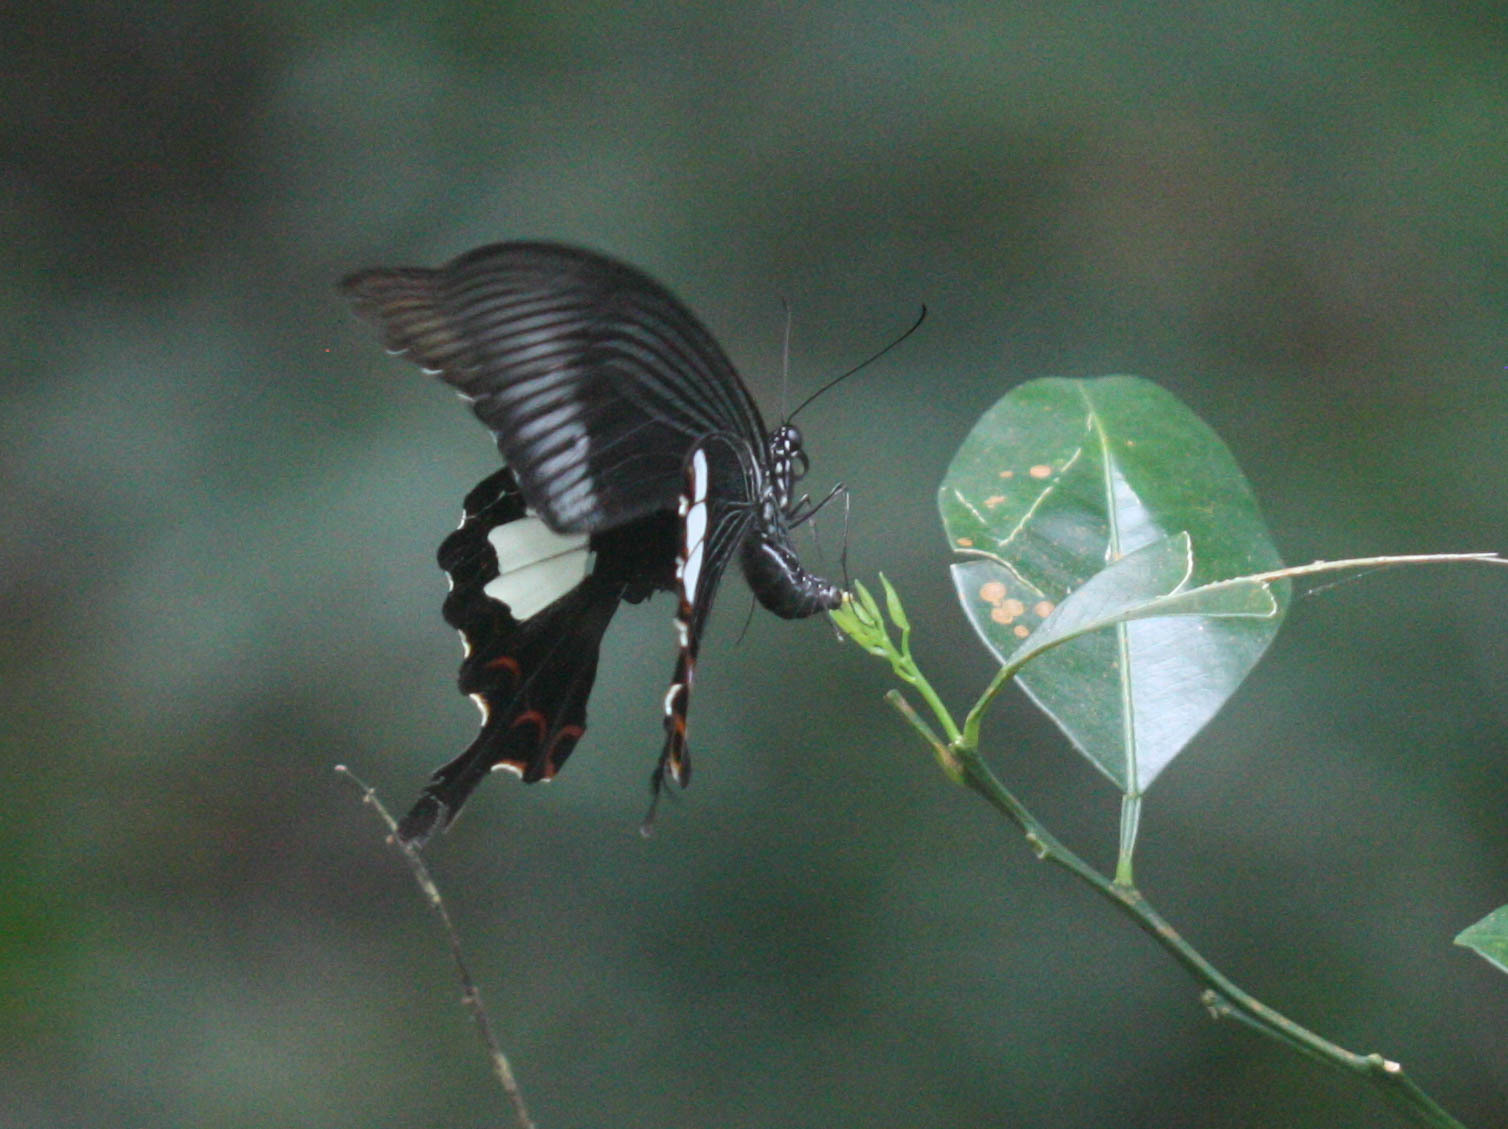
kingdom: Animalia
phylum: Arthropoda
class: Insecta
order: Lepidoptera
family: Papilionidae
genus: Papilio
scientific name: Papilio helenus
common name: Red helen
